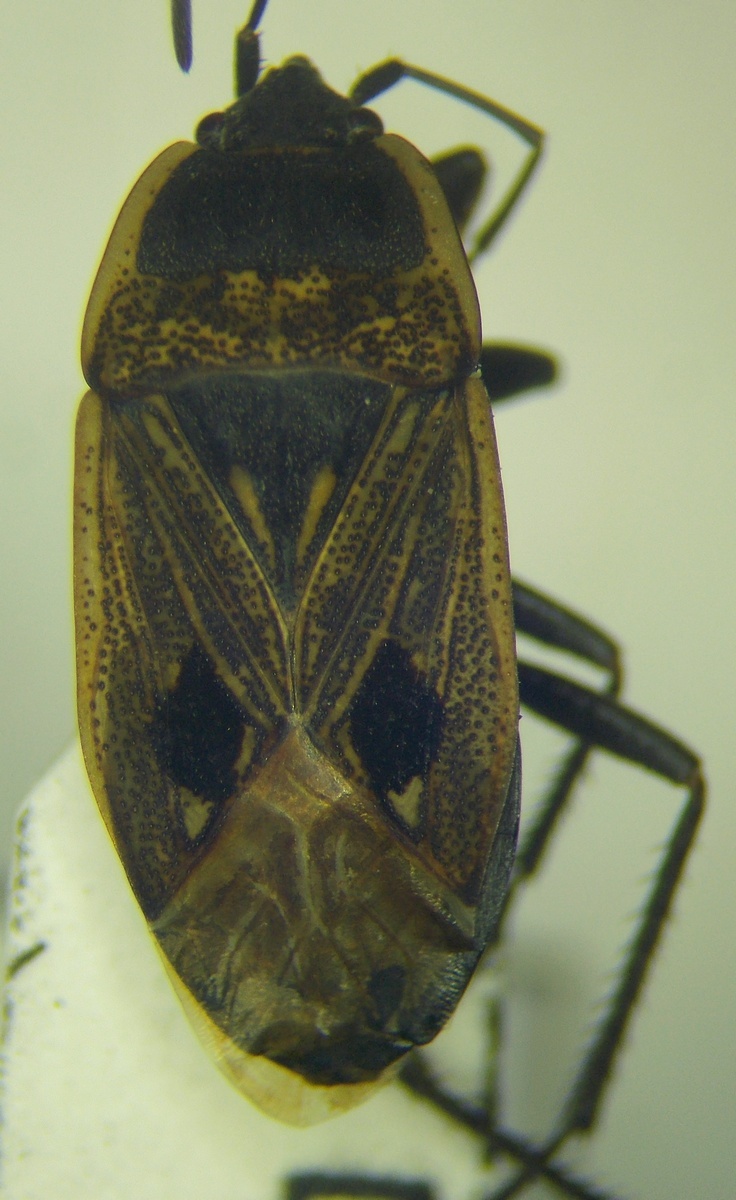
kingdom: Animalia
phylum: Arthropoda
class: Insecta
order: Hemiptera
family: Rhyparochromidae
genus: Graptopeltus
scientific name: Graptopeltus lynceus
